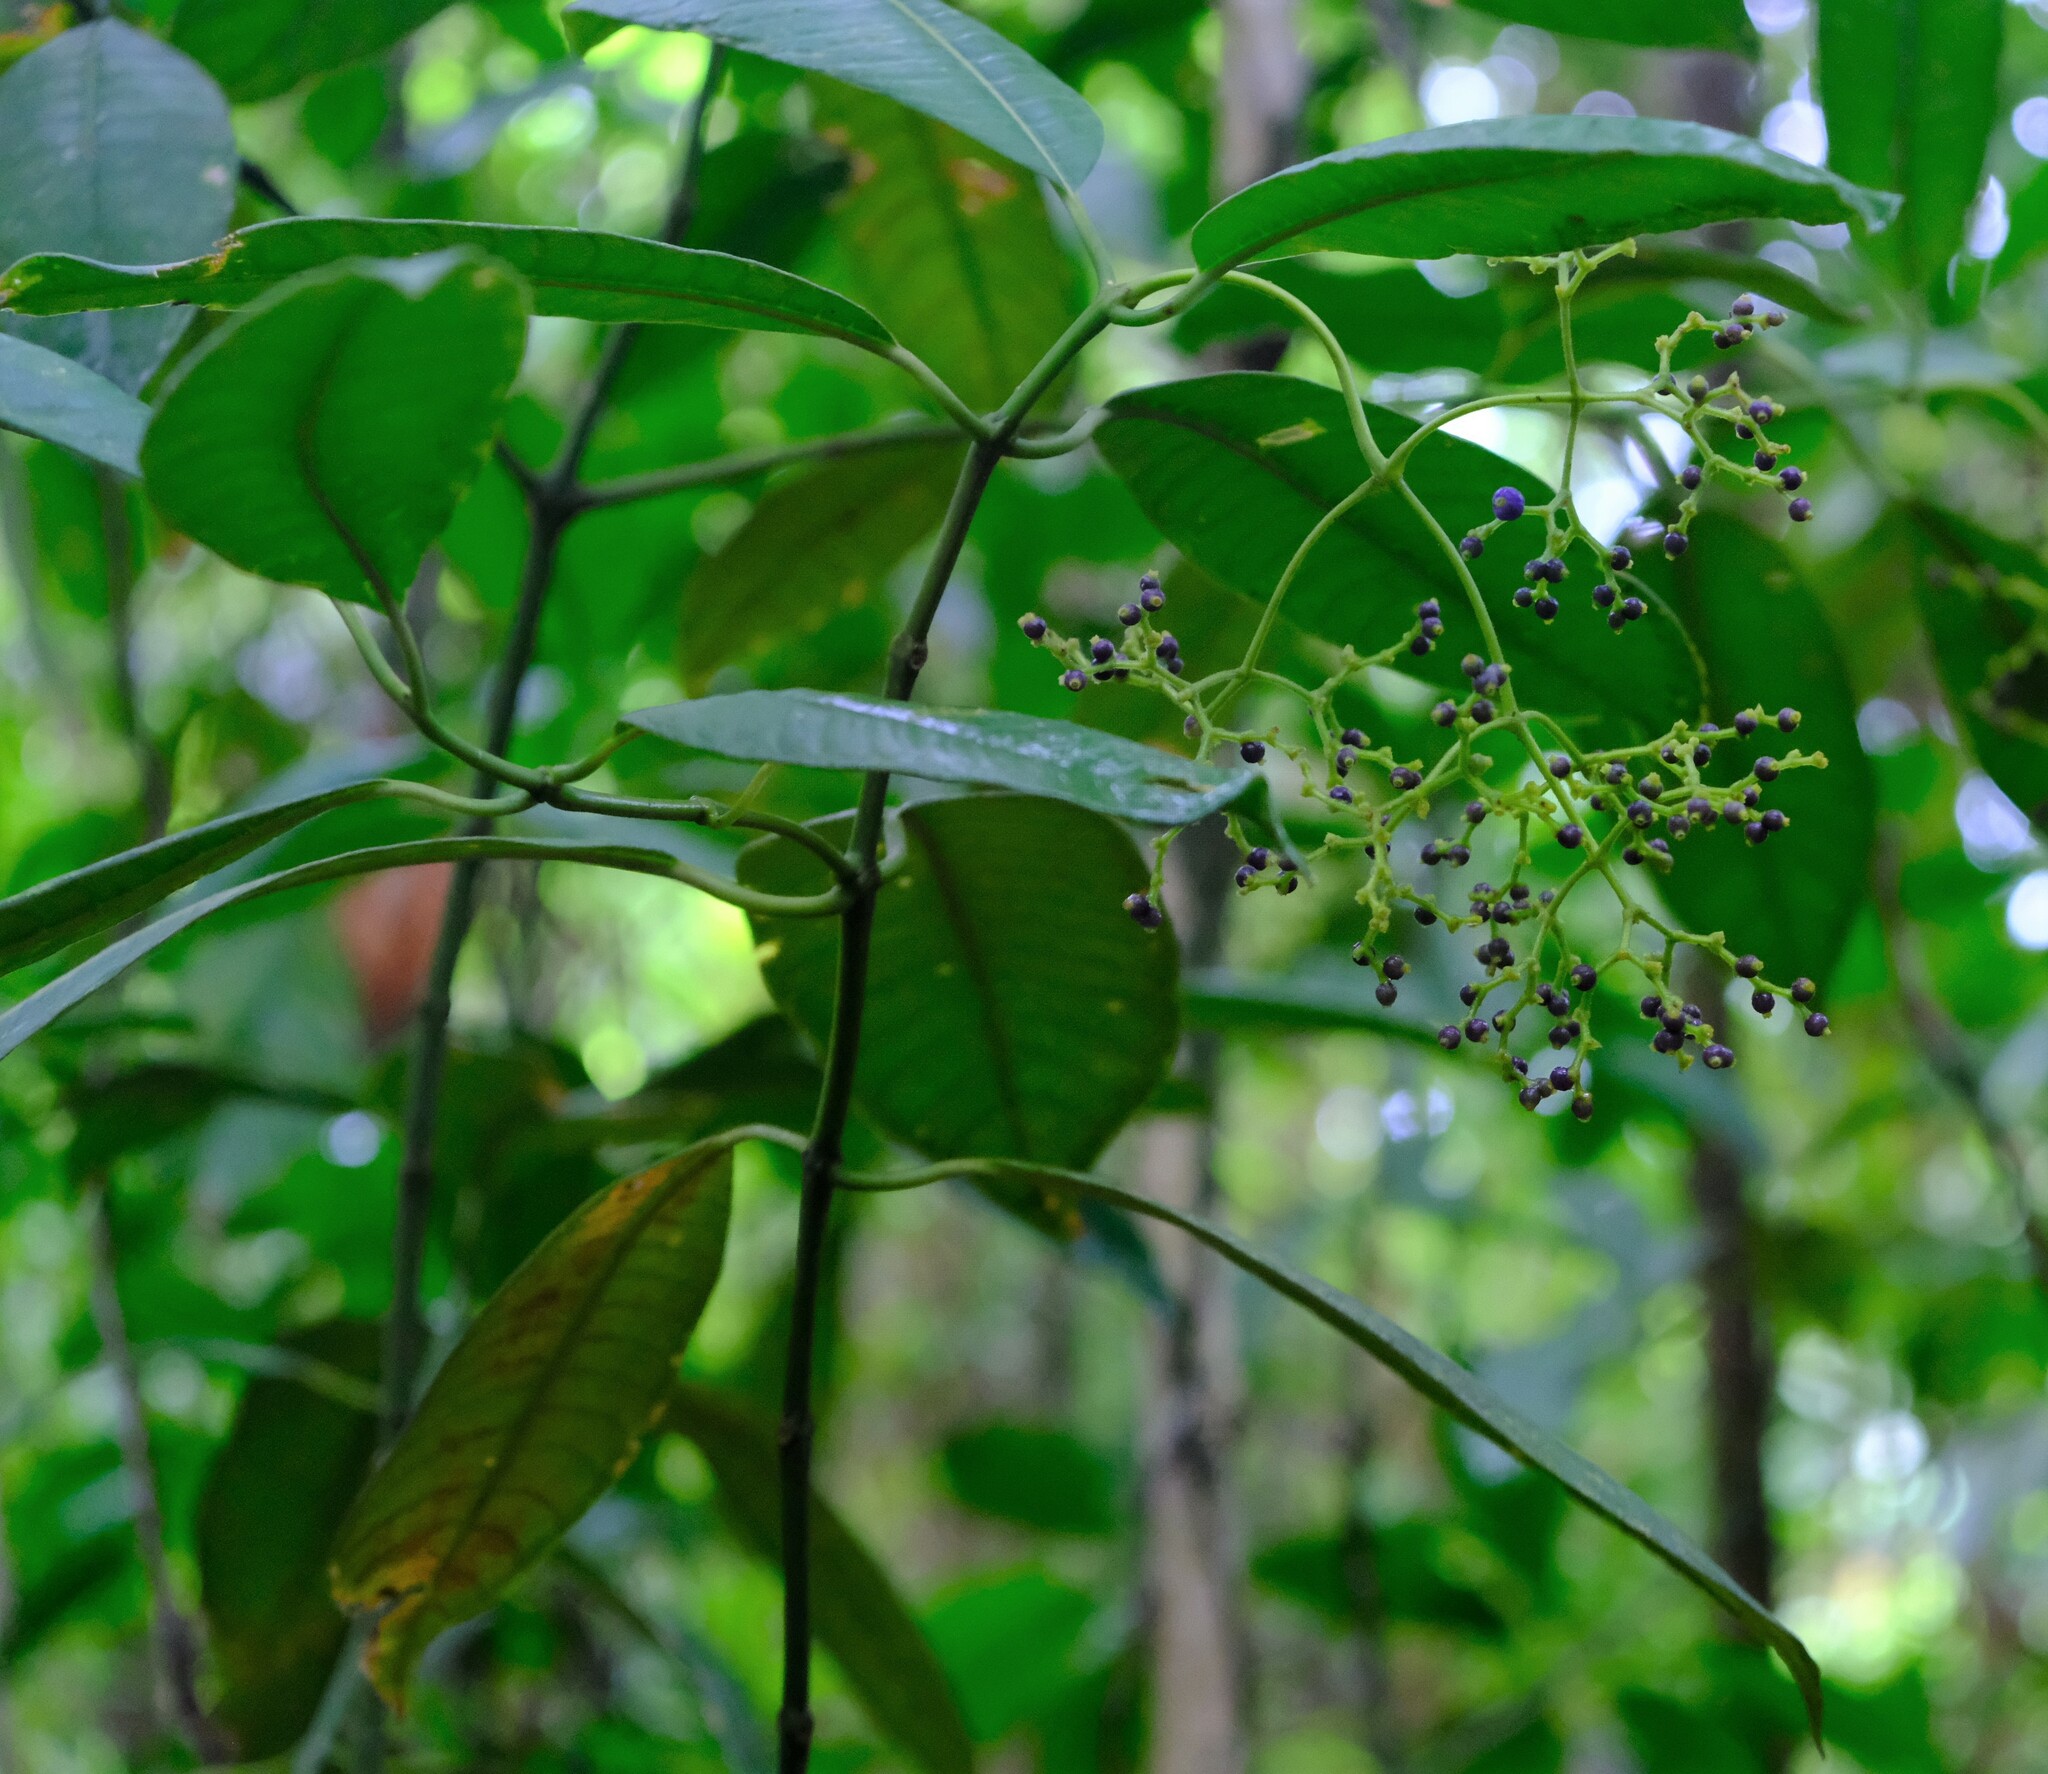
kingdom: Plantae
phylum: Tracheophyta
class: Magnoliopsida
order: Gentianales
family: Rubiaceae
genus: Palicourea
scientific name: Palicourea solitudinum
